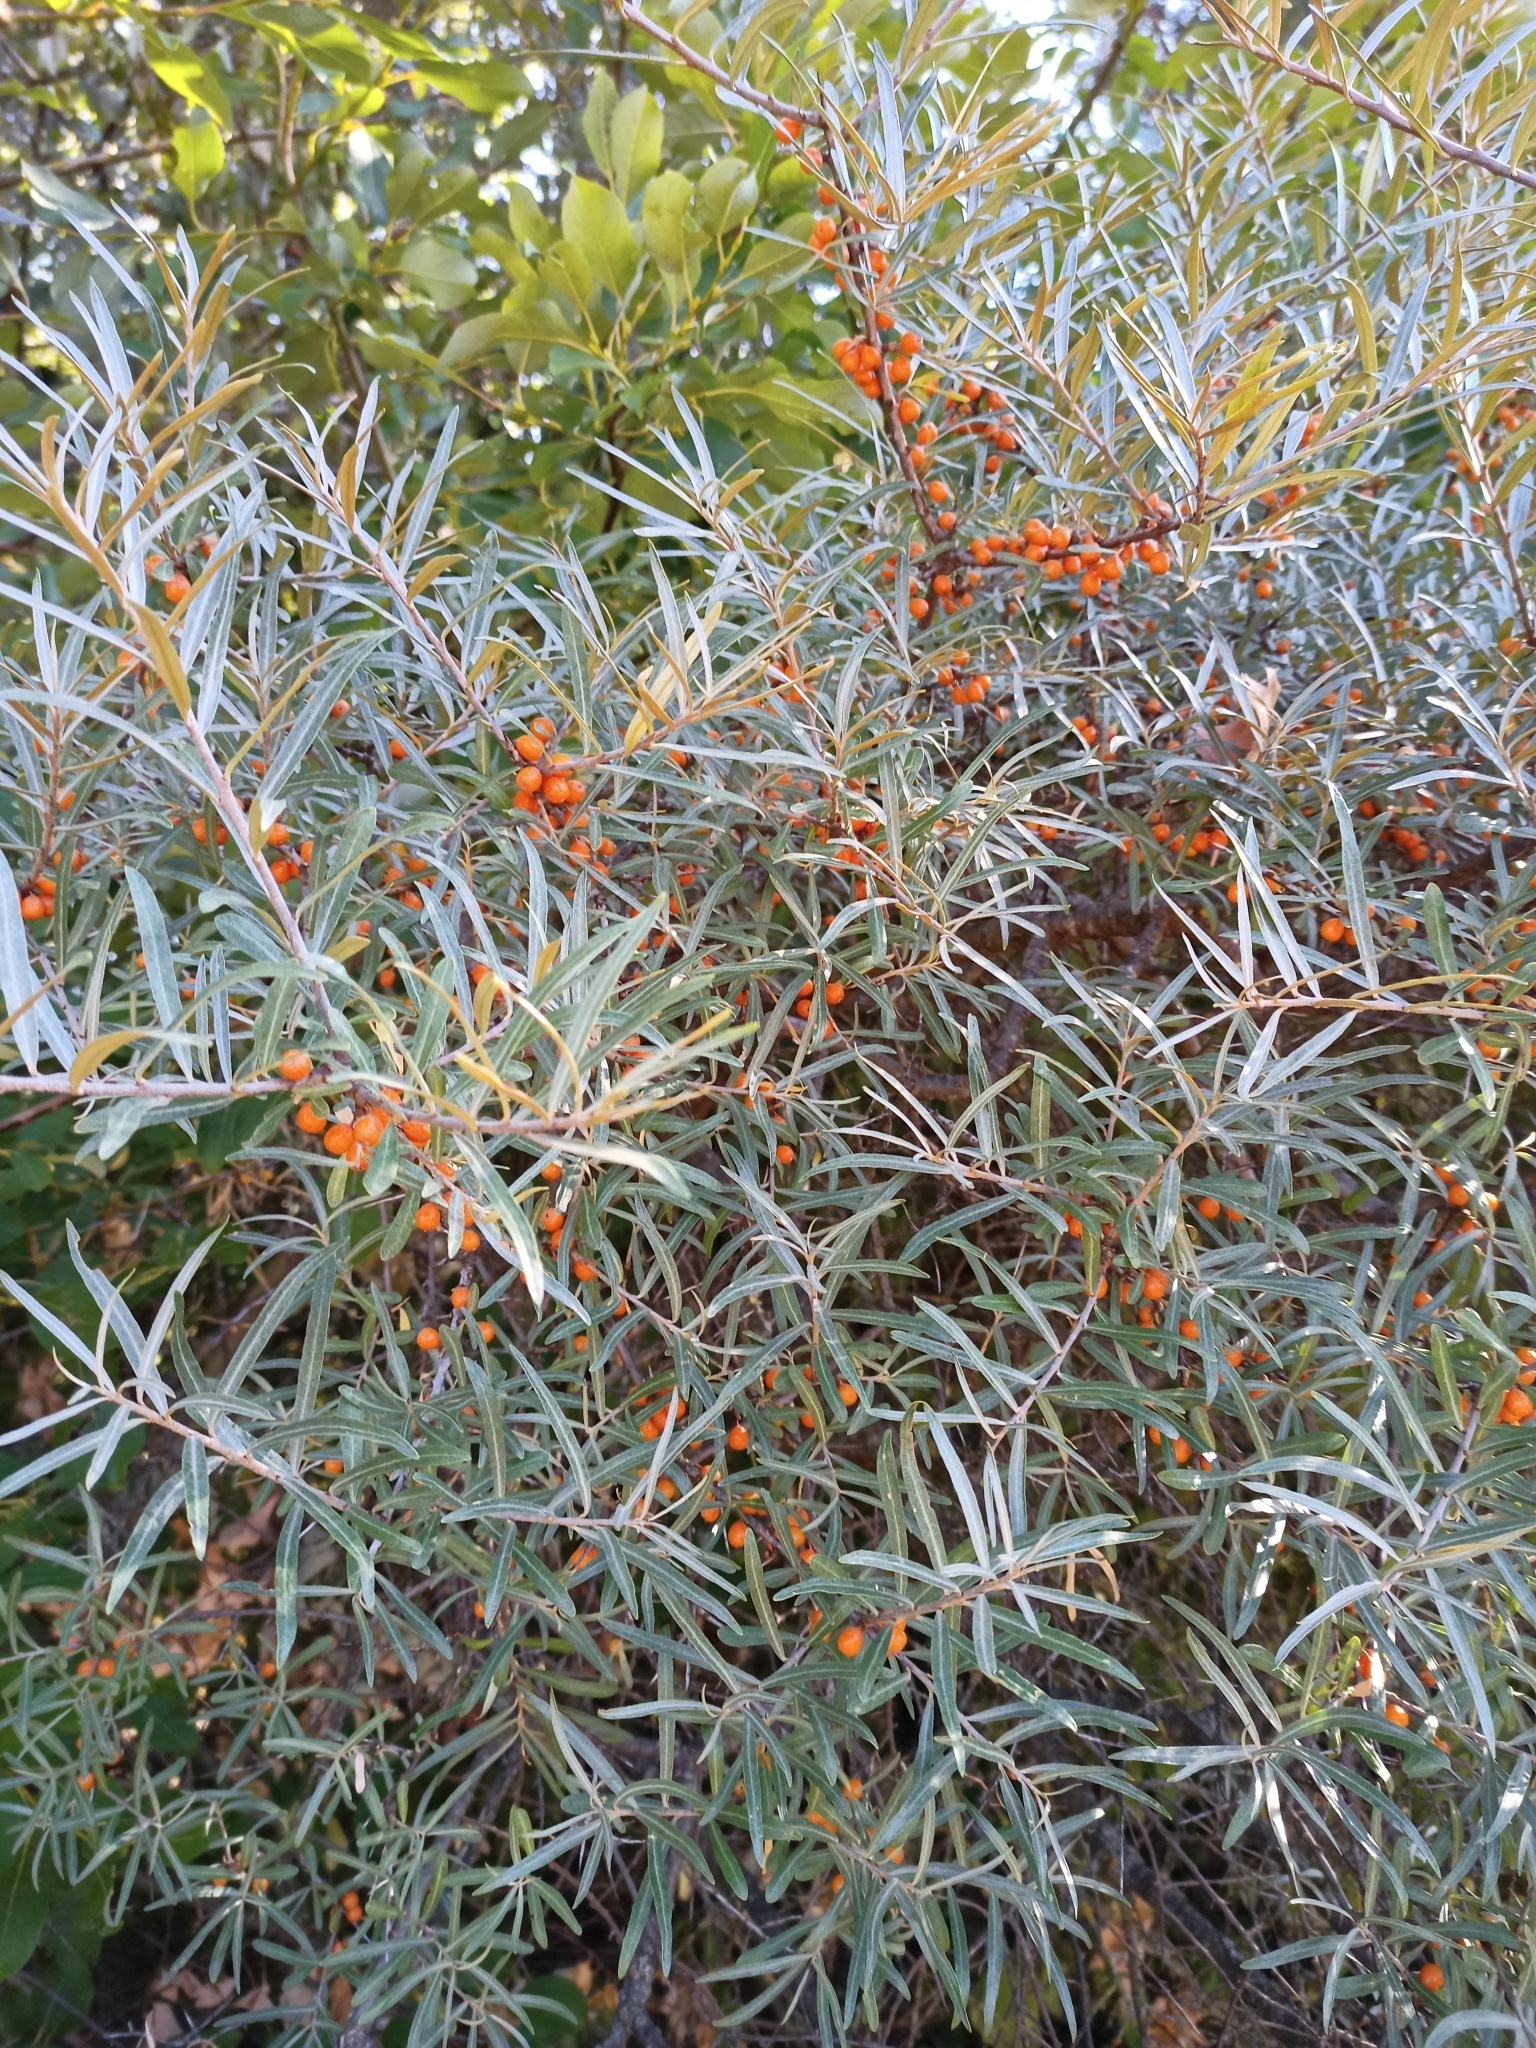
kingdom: Plantae
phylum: Tracheophyta
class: Magnoliopsida
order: Rosales
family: Elaeagnaceae
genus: Hippophae
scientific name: Hippophae rhamnoides
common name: Sea-buckthorn
